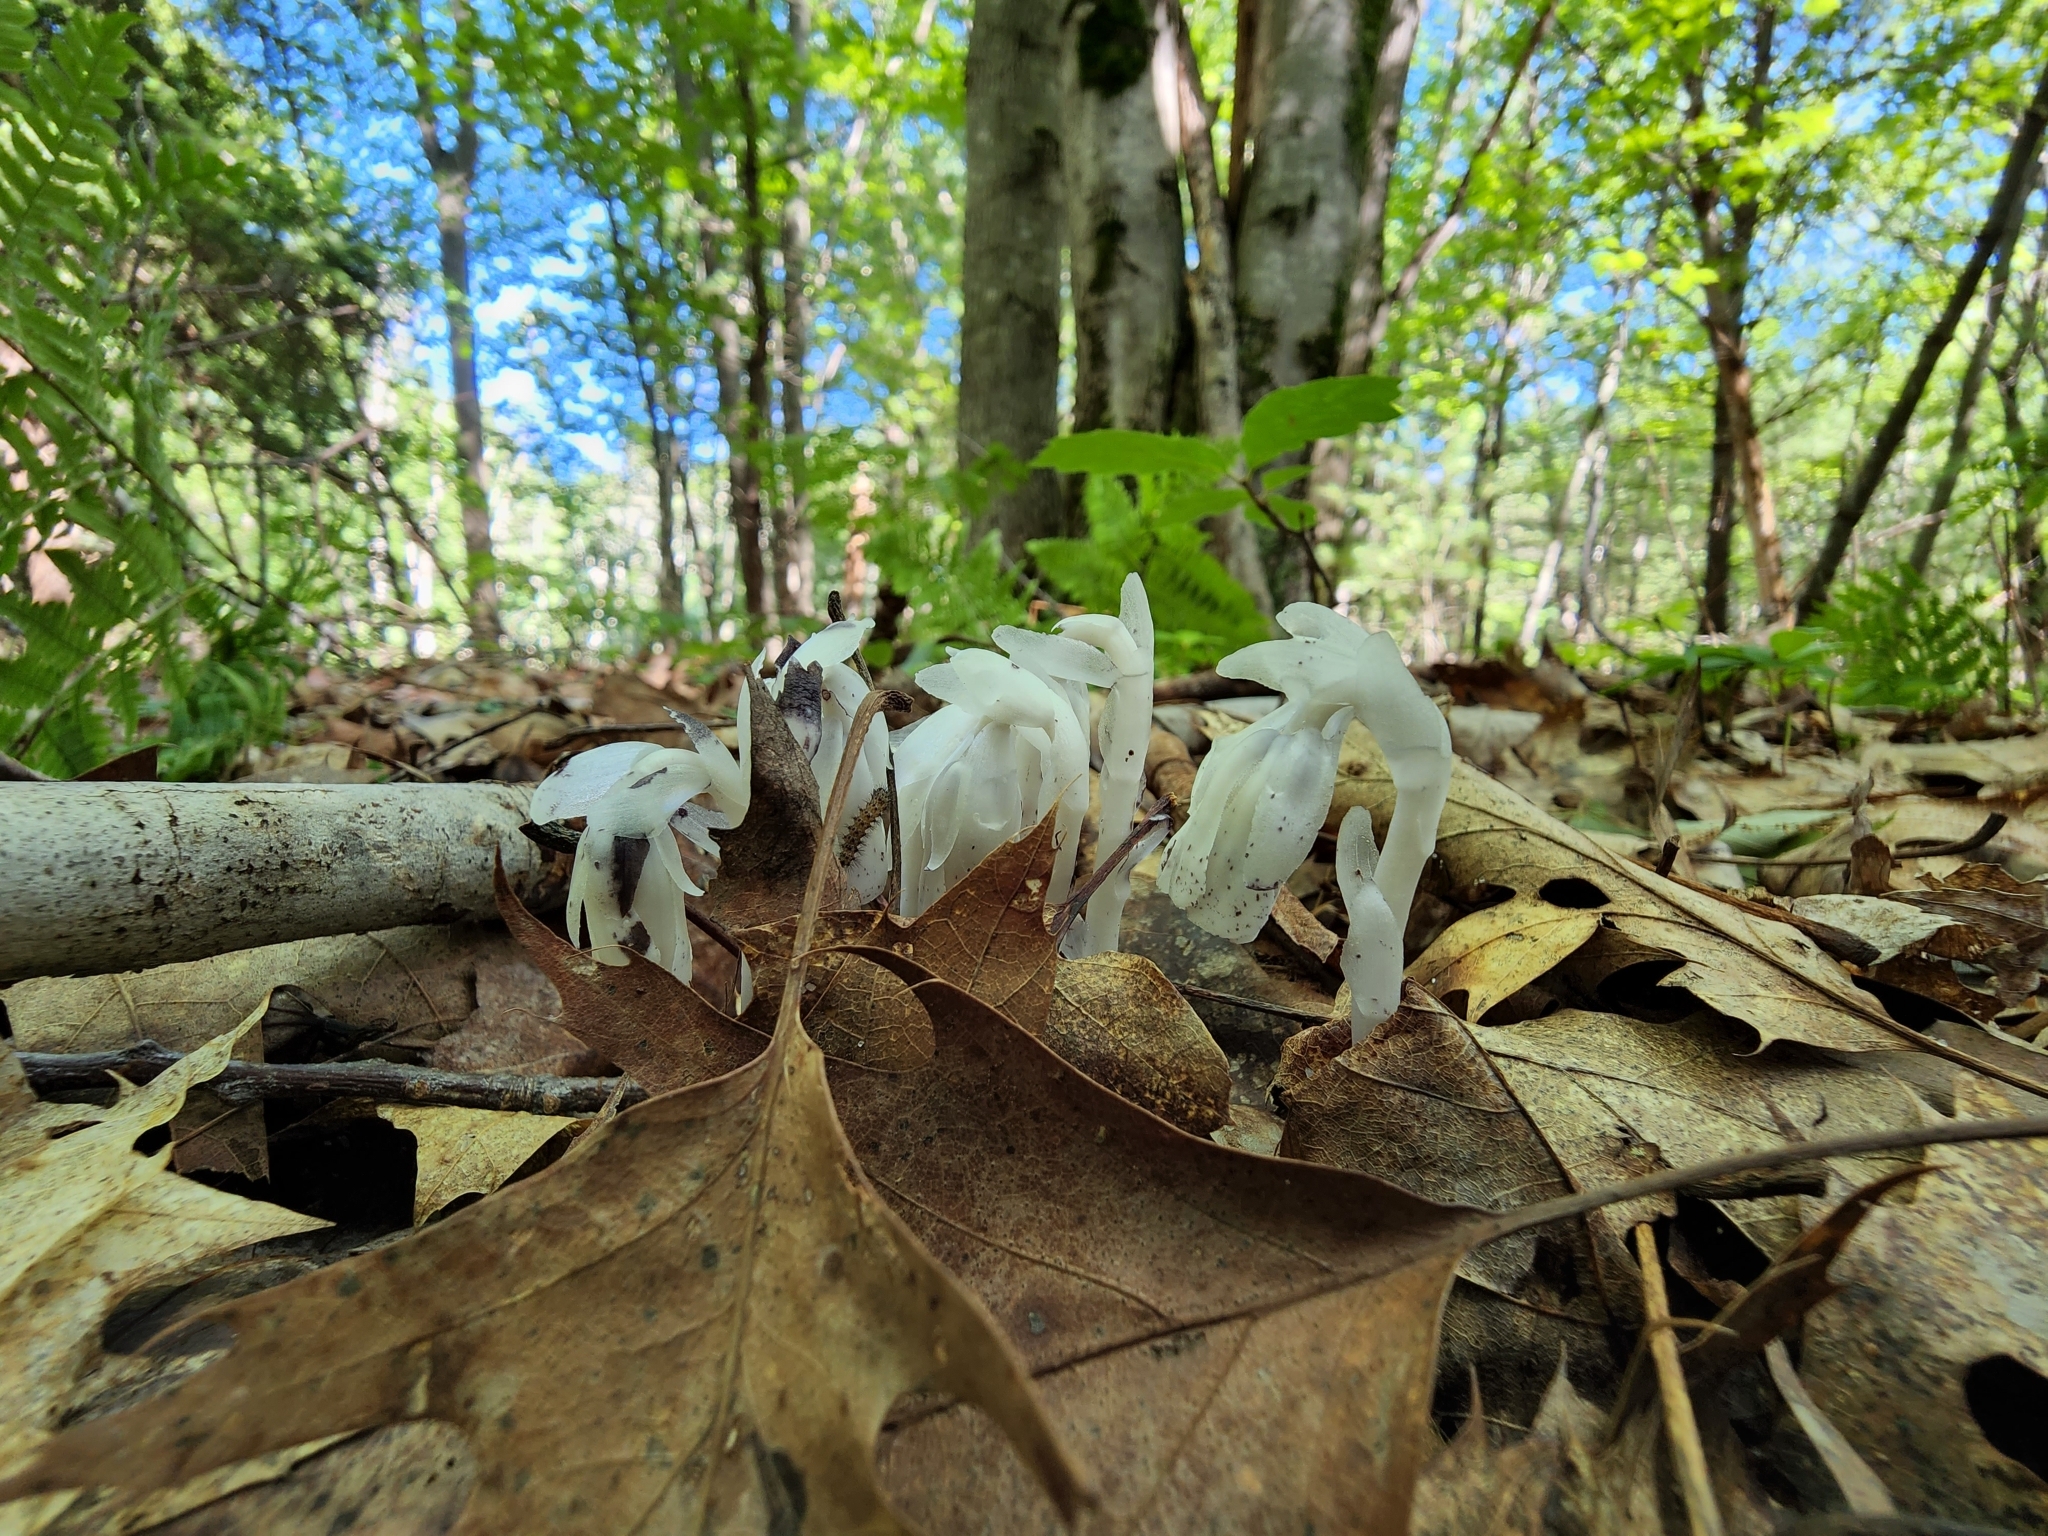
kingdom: Plantae
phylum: Tracheophyta
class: Magnoliopsida
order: Ericales
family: Ericaceae
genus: Monotropa
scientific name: Monotropa uniflora
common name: Convulsion root
